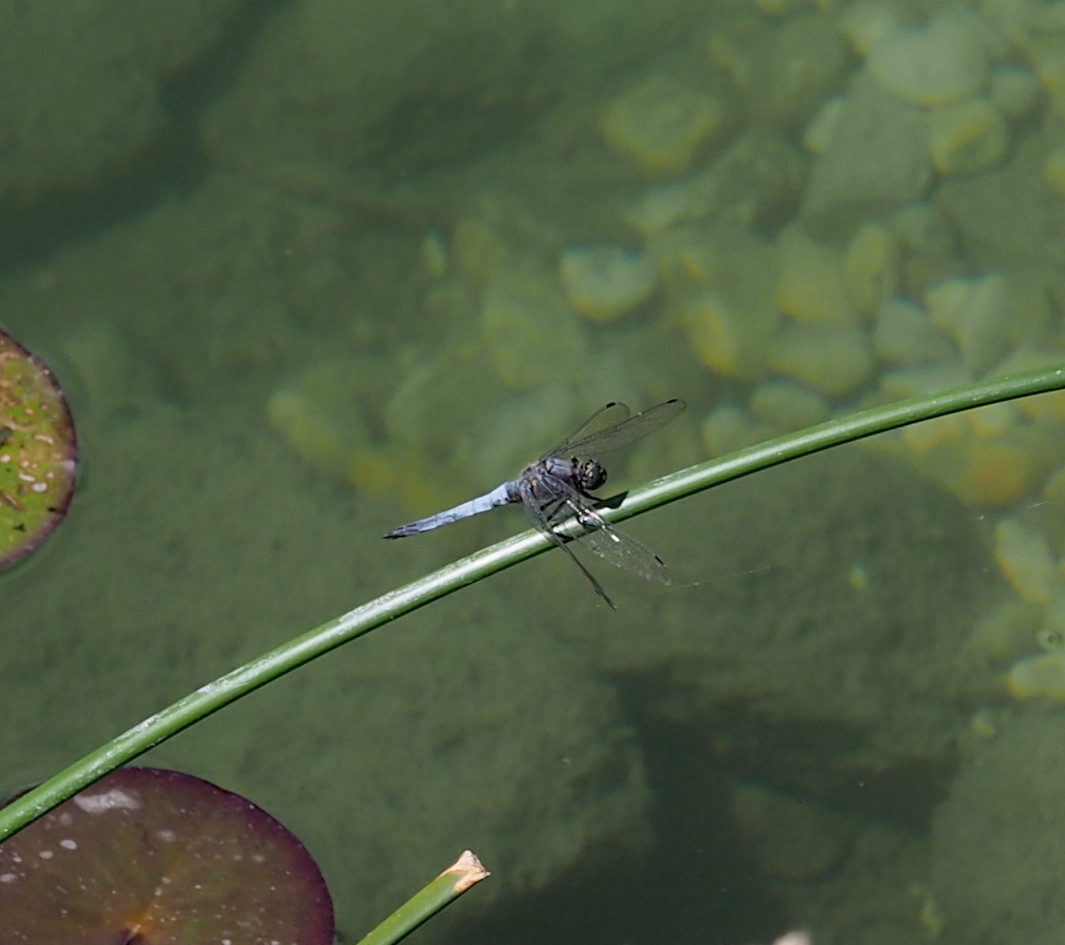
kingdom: Animalia
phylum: Arthropoda
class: Insecta
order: Odonata
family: Libellulidae
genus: Orthetrum
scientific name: Orthetrum cancellatum
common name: Black-tailed skimmer
